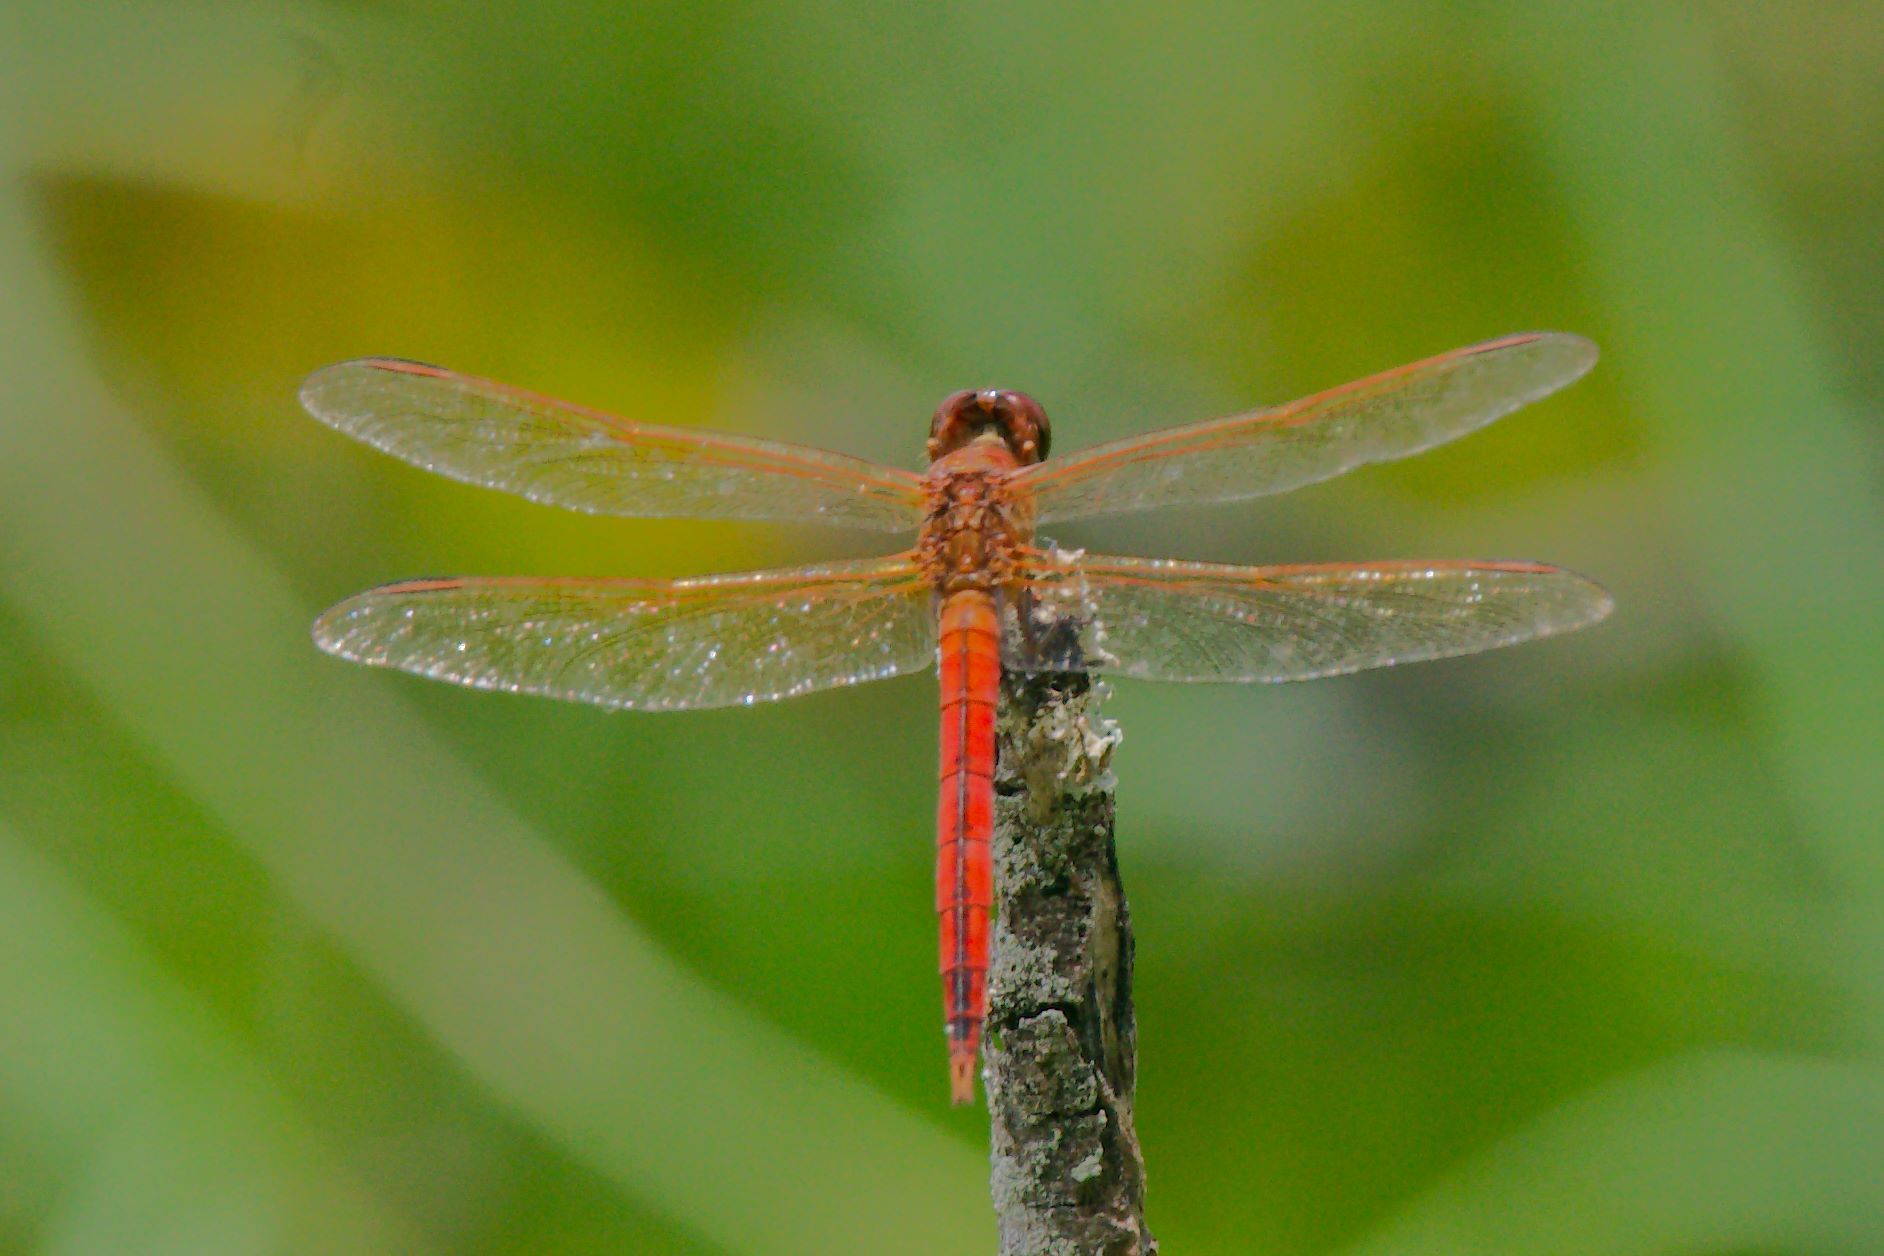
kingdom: Animalia
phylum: Arthropoda
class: Insecta
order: Odonata
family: Libellulidae
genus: Crocothemis
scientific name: Crocothemis servilia
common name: Scarlet skimmer
